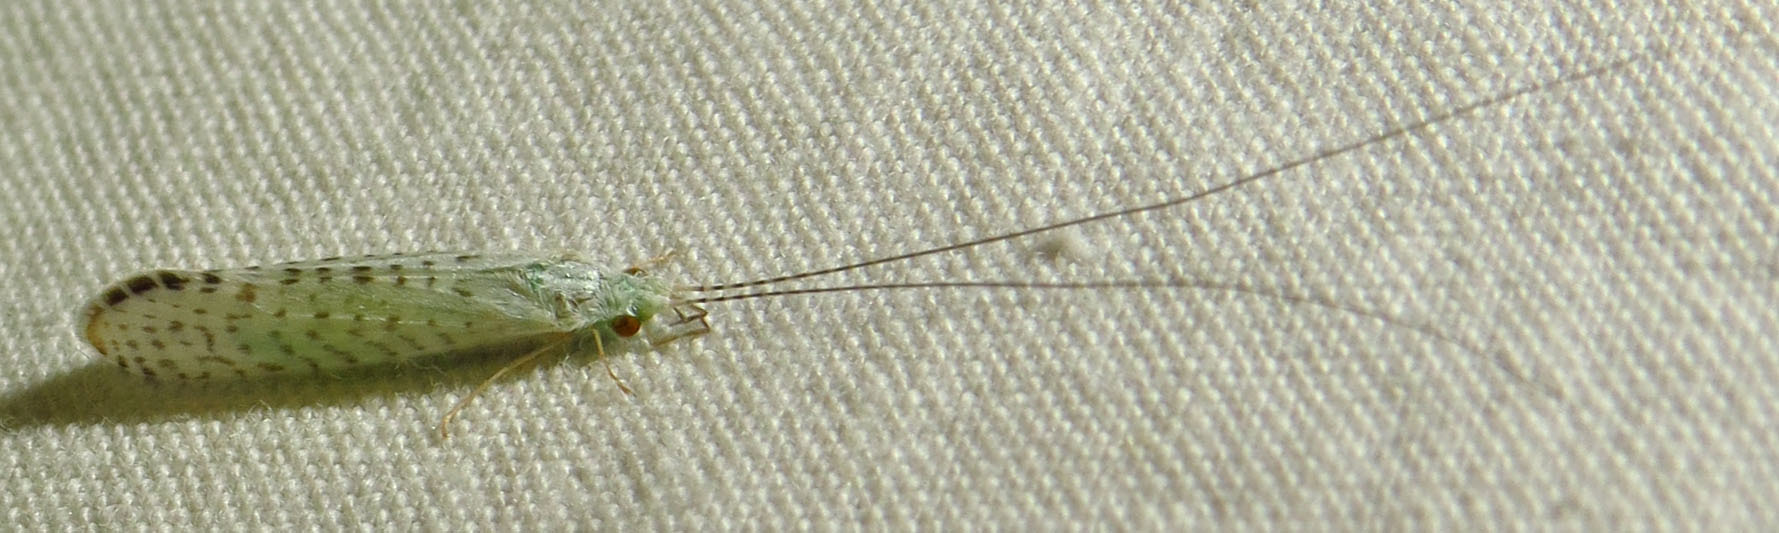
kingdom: Animalia
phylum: Arthropoda
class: Insecta
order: Trichoptera
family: Leptoceridae
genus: Nectopsyche
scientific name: Nectopsyche candida
